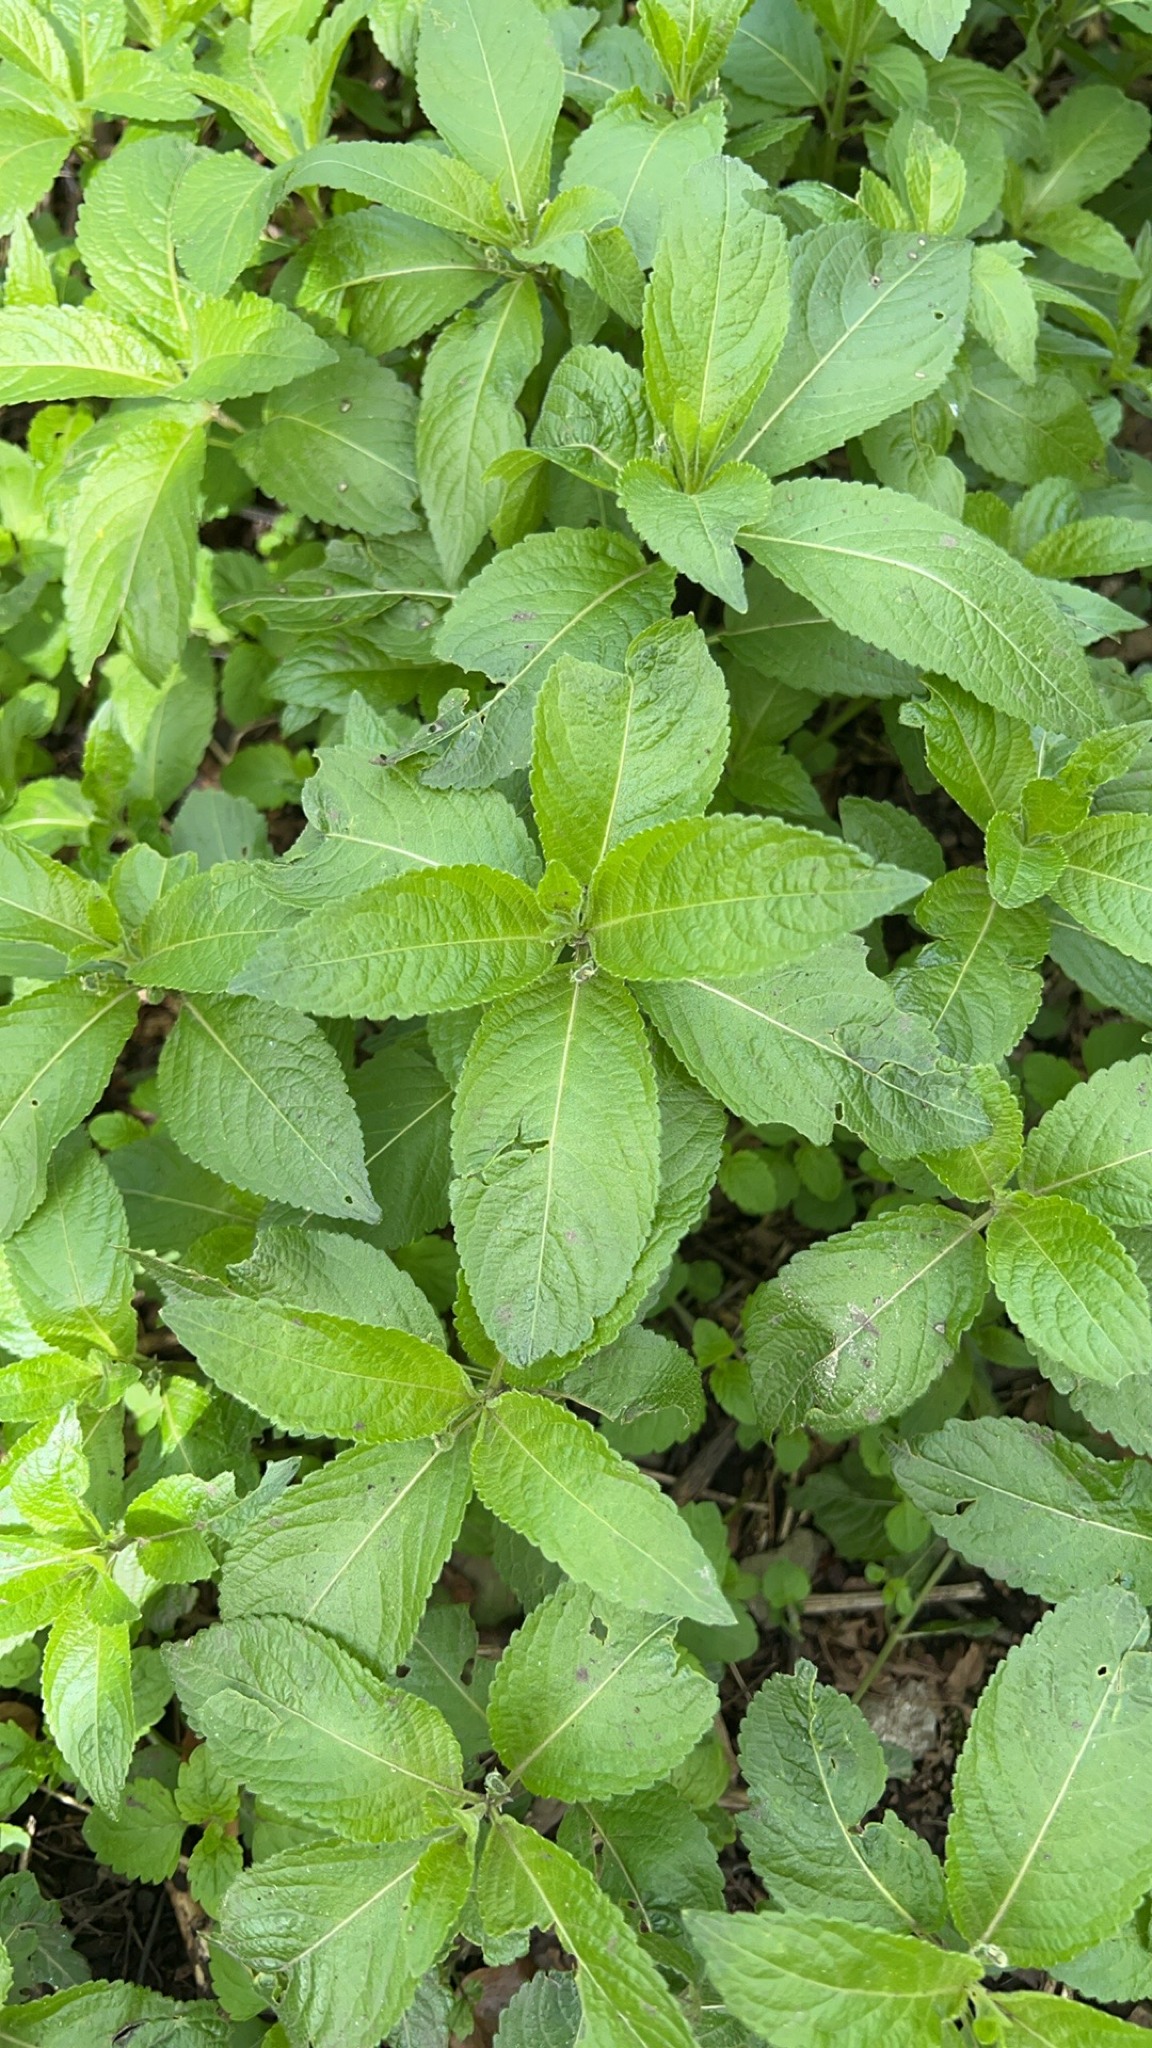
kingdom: Plantae
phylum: Tracheophyta
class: Magnoliopsida
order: Malpighiales
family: Euphorbiaceae
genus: Mercurialis
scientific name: Mercurialis perennis
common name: Dog mercury
